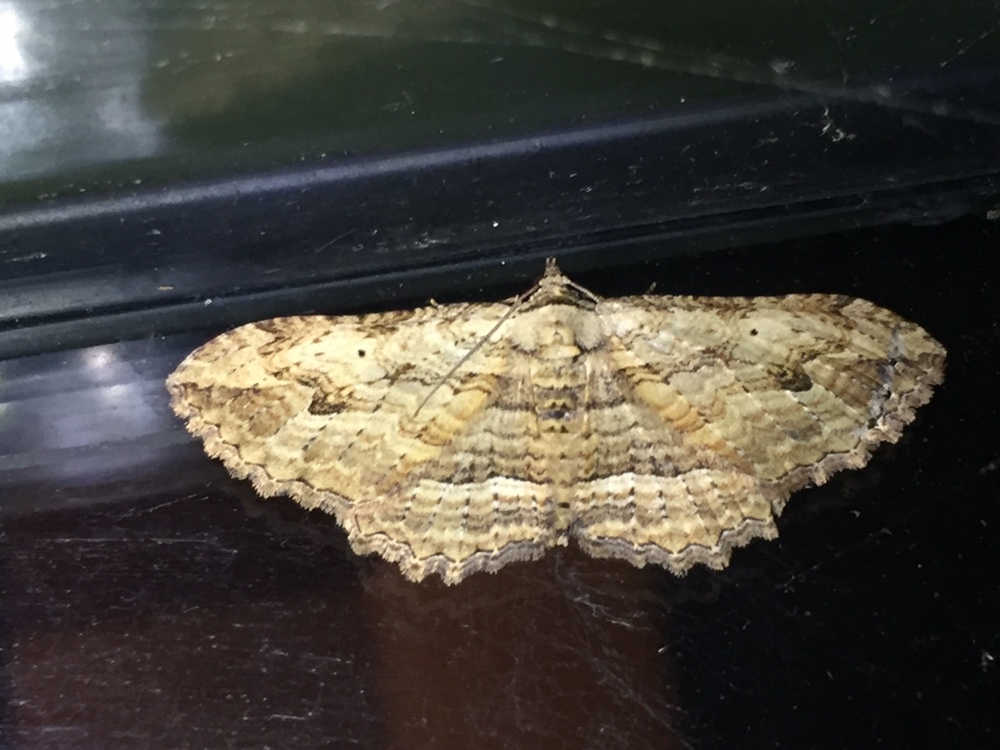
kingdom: Animalia
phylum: Arthropoda
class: Insecta
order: Lepidoptera
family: Geometridae
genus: Austrocidaria
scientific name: Austrocidaria bipartita
